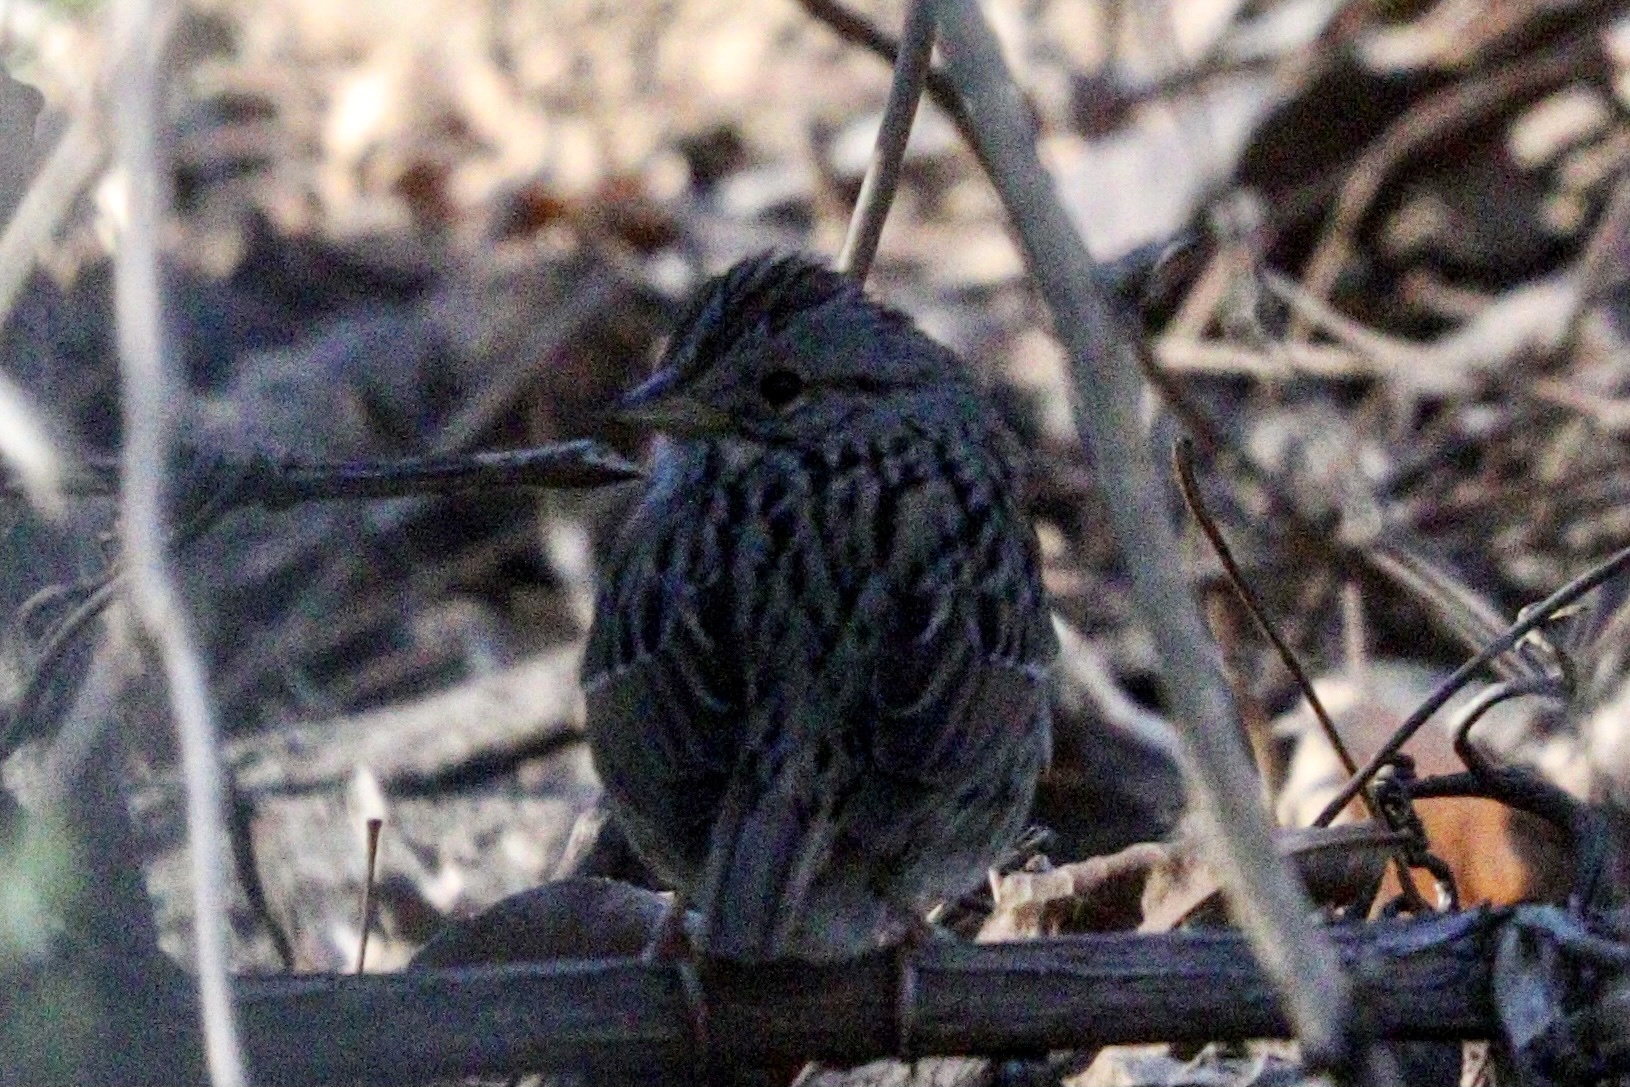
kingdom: Animalia
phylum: Chordata
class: Aves
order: Passeriformes
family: Passerellidae
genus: Melospiza
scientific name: Melospiza lincolnii
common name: Lincoln's sparrow
